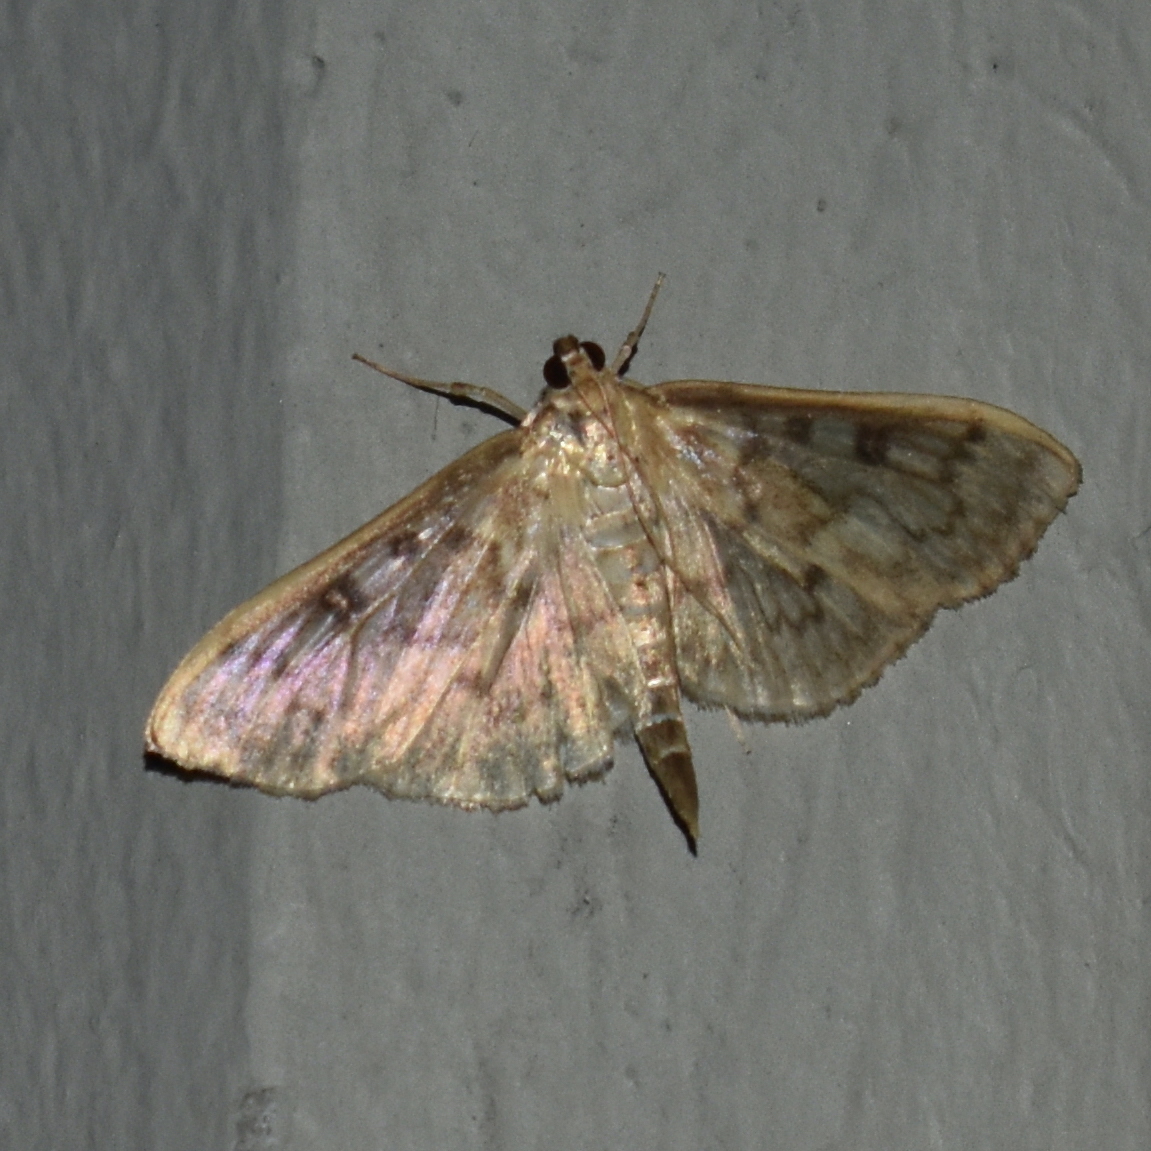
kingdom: Animalia
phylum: Arthropoda
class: Insecta
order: Lepidoptera
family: Crambidae
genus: Herpetogramma
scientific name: Herpetogramma aquilonalis
